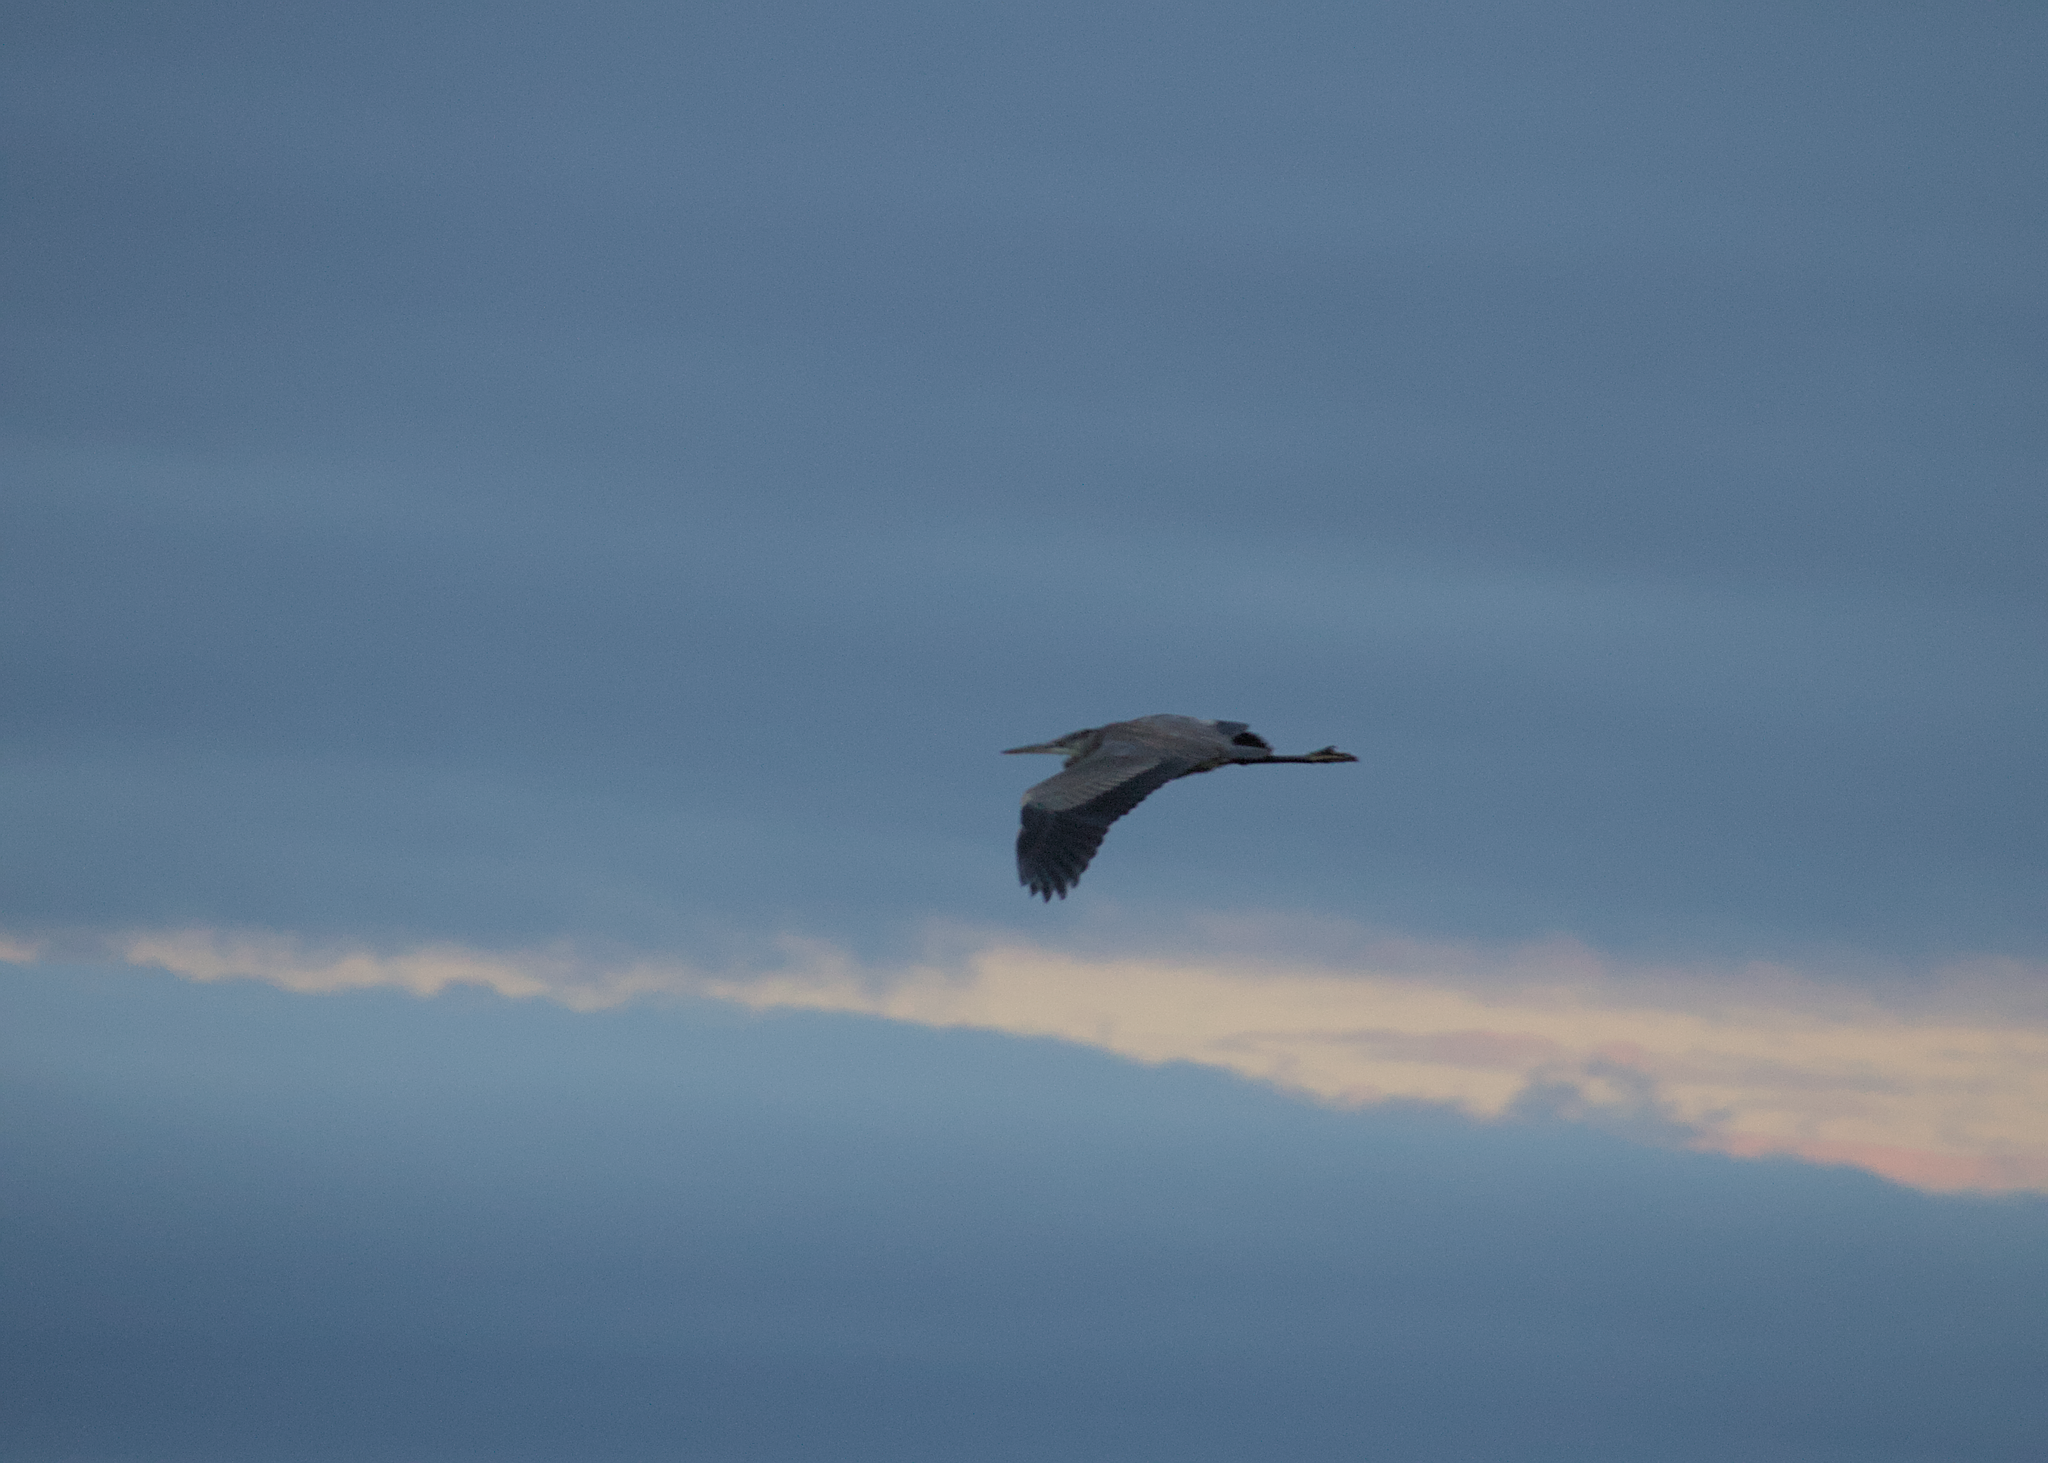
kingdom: Animalia
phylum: Chordata
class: Aves
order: Pelecaniformes
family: Ardeidae
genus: Ardea
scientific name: Ardea herodias
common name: Great blue heron
